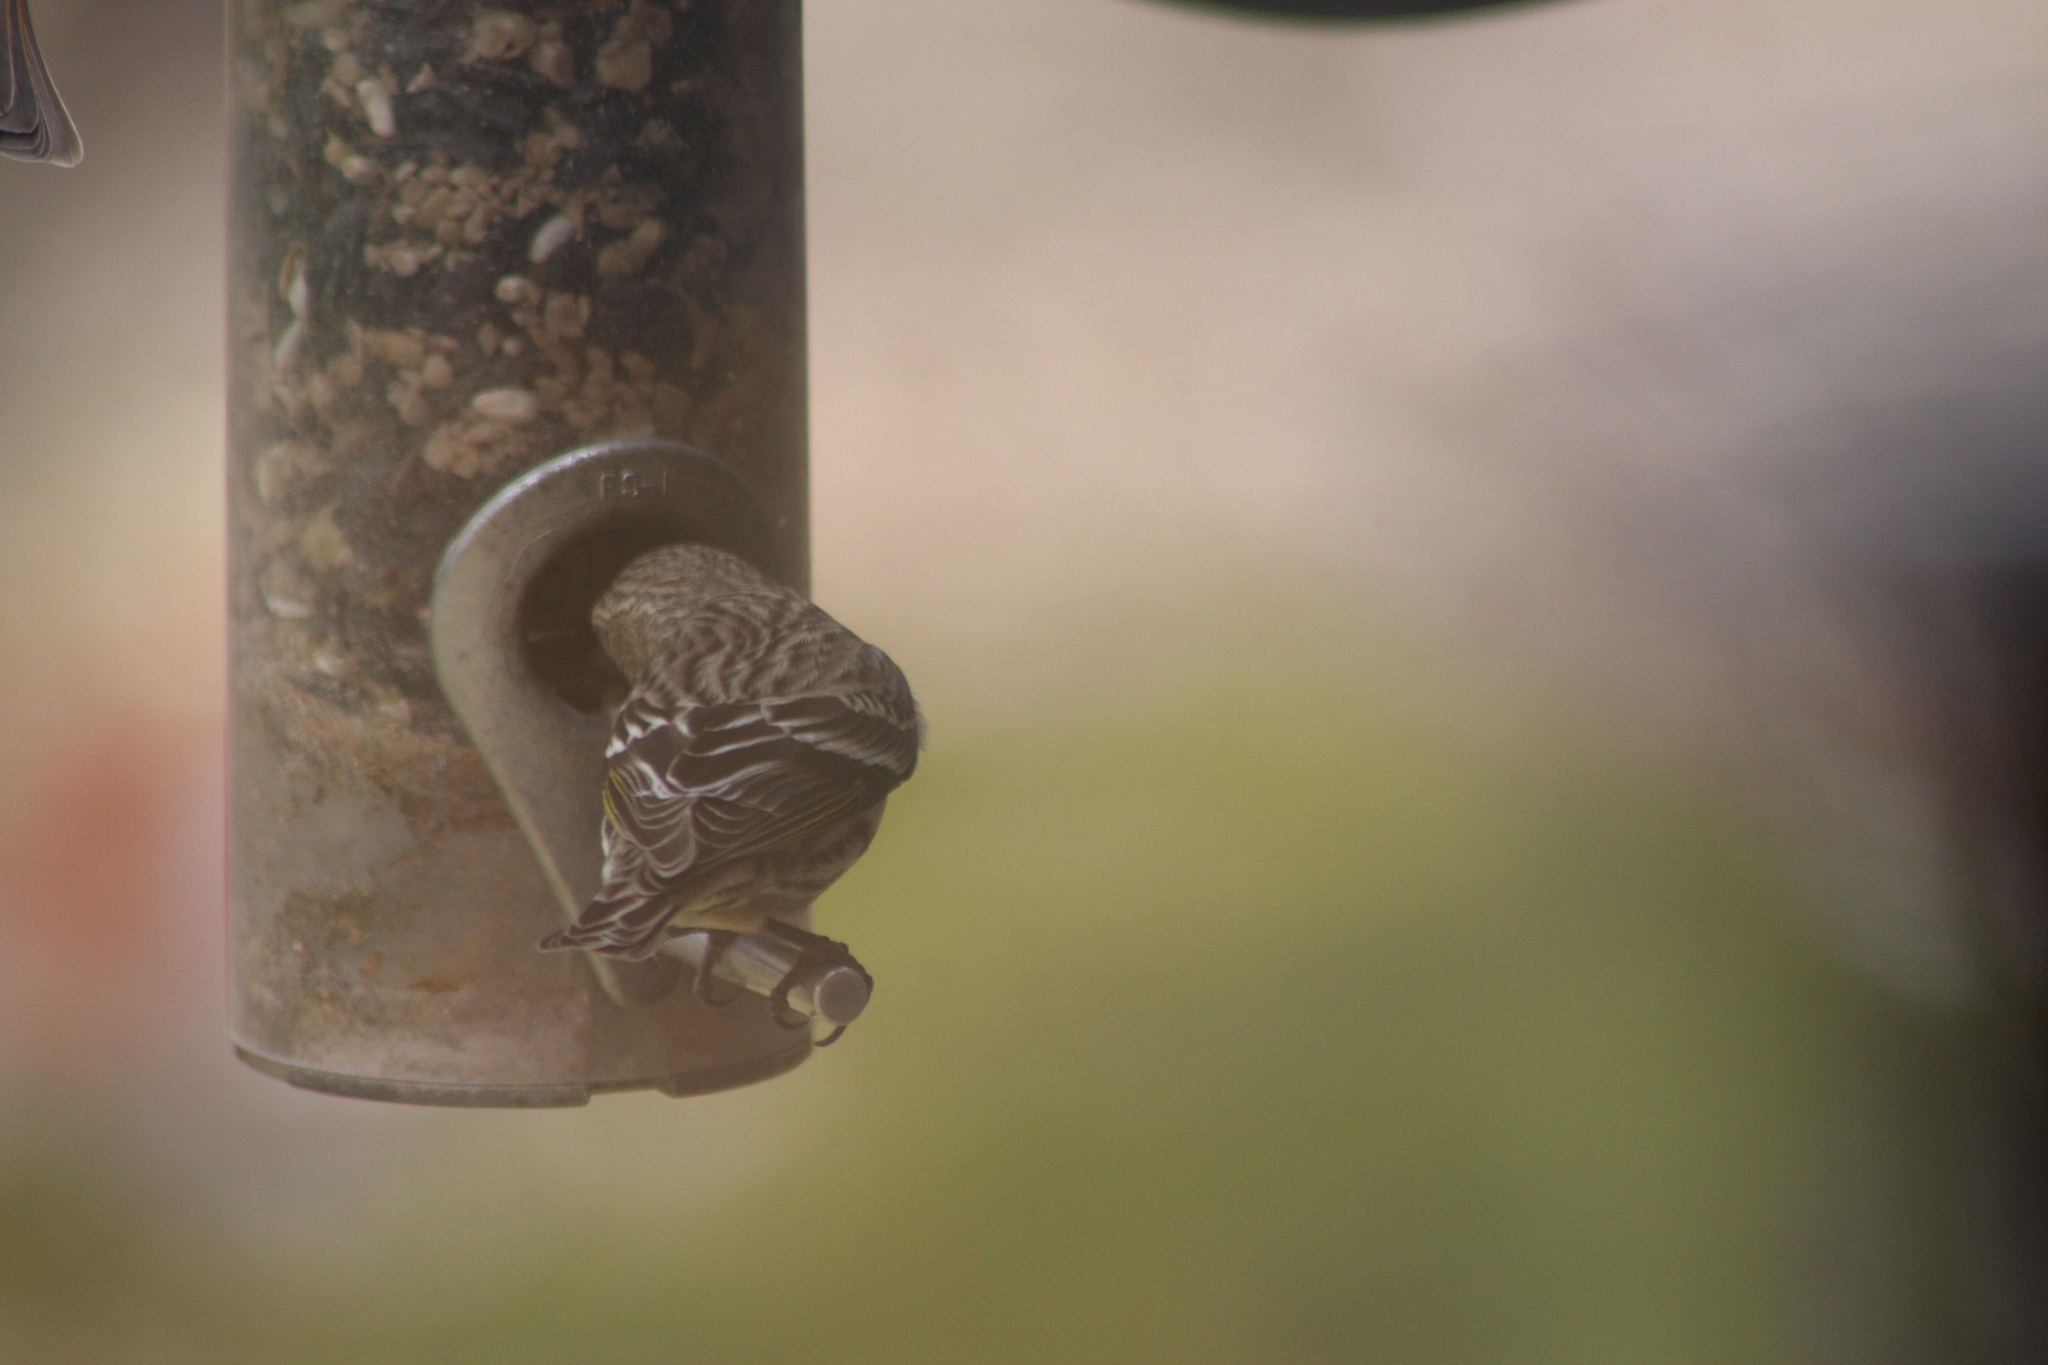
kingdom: Animalia
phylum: Chordata
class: Aves
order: Passeriformes
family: Fringillidae
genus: Spinus
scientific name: Spinus pinus
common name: Pine siskin
